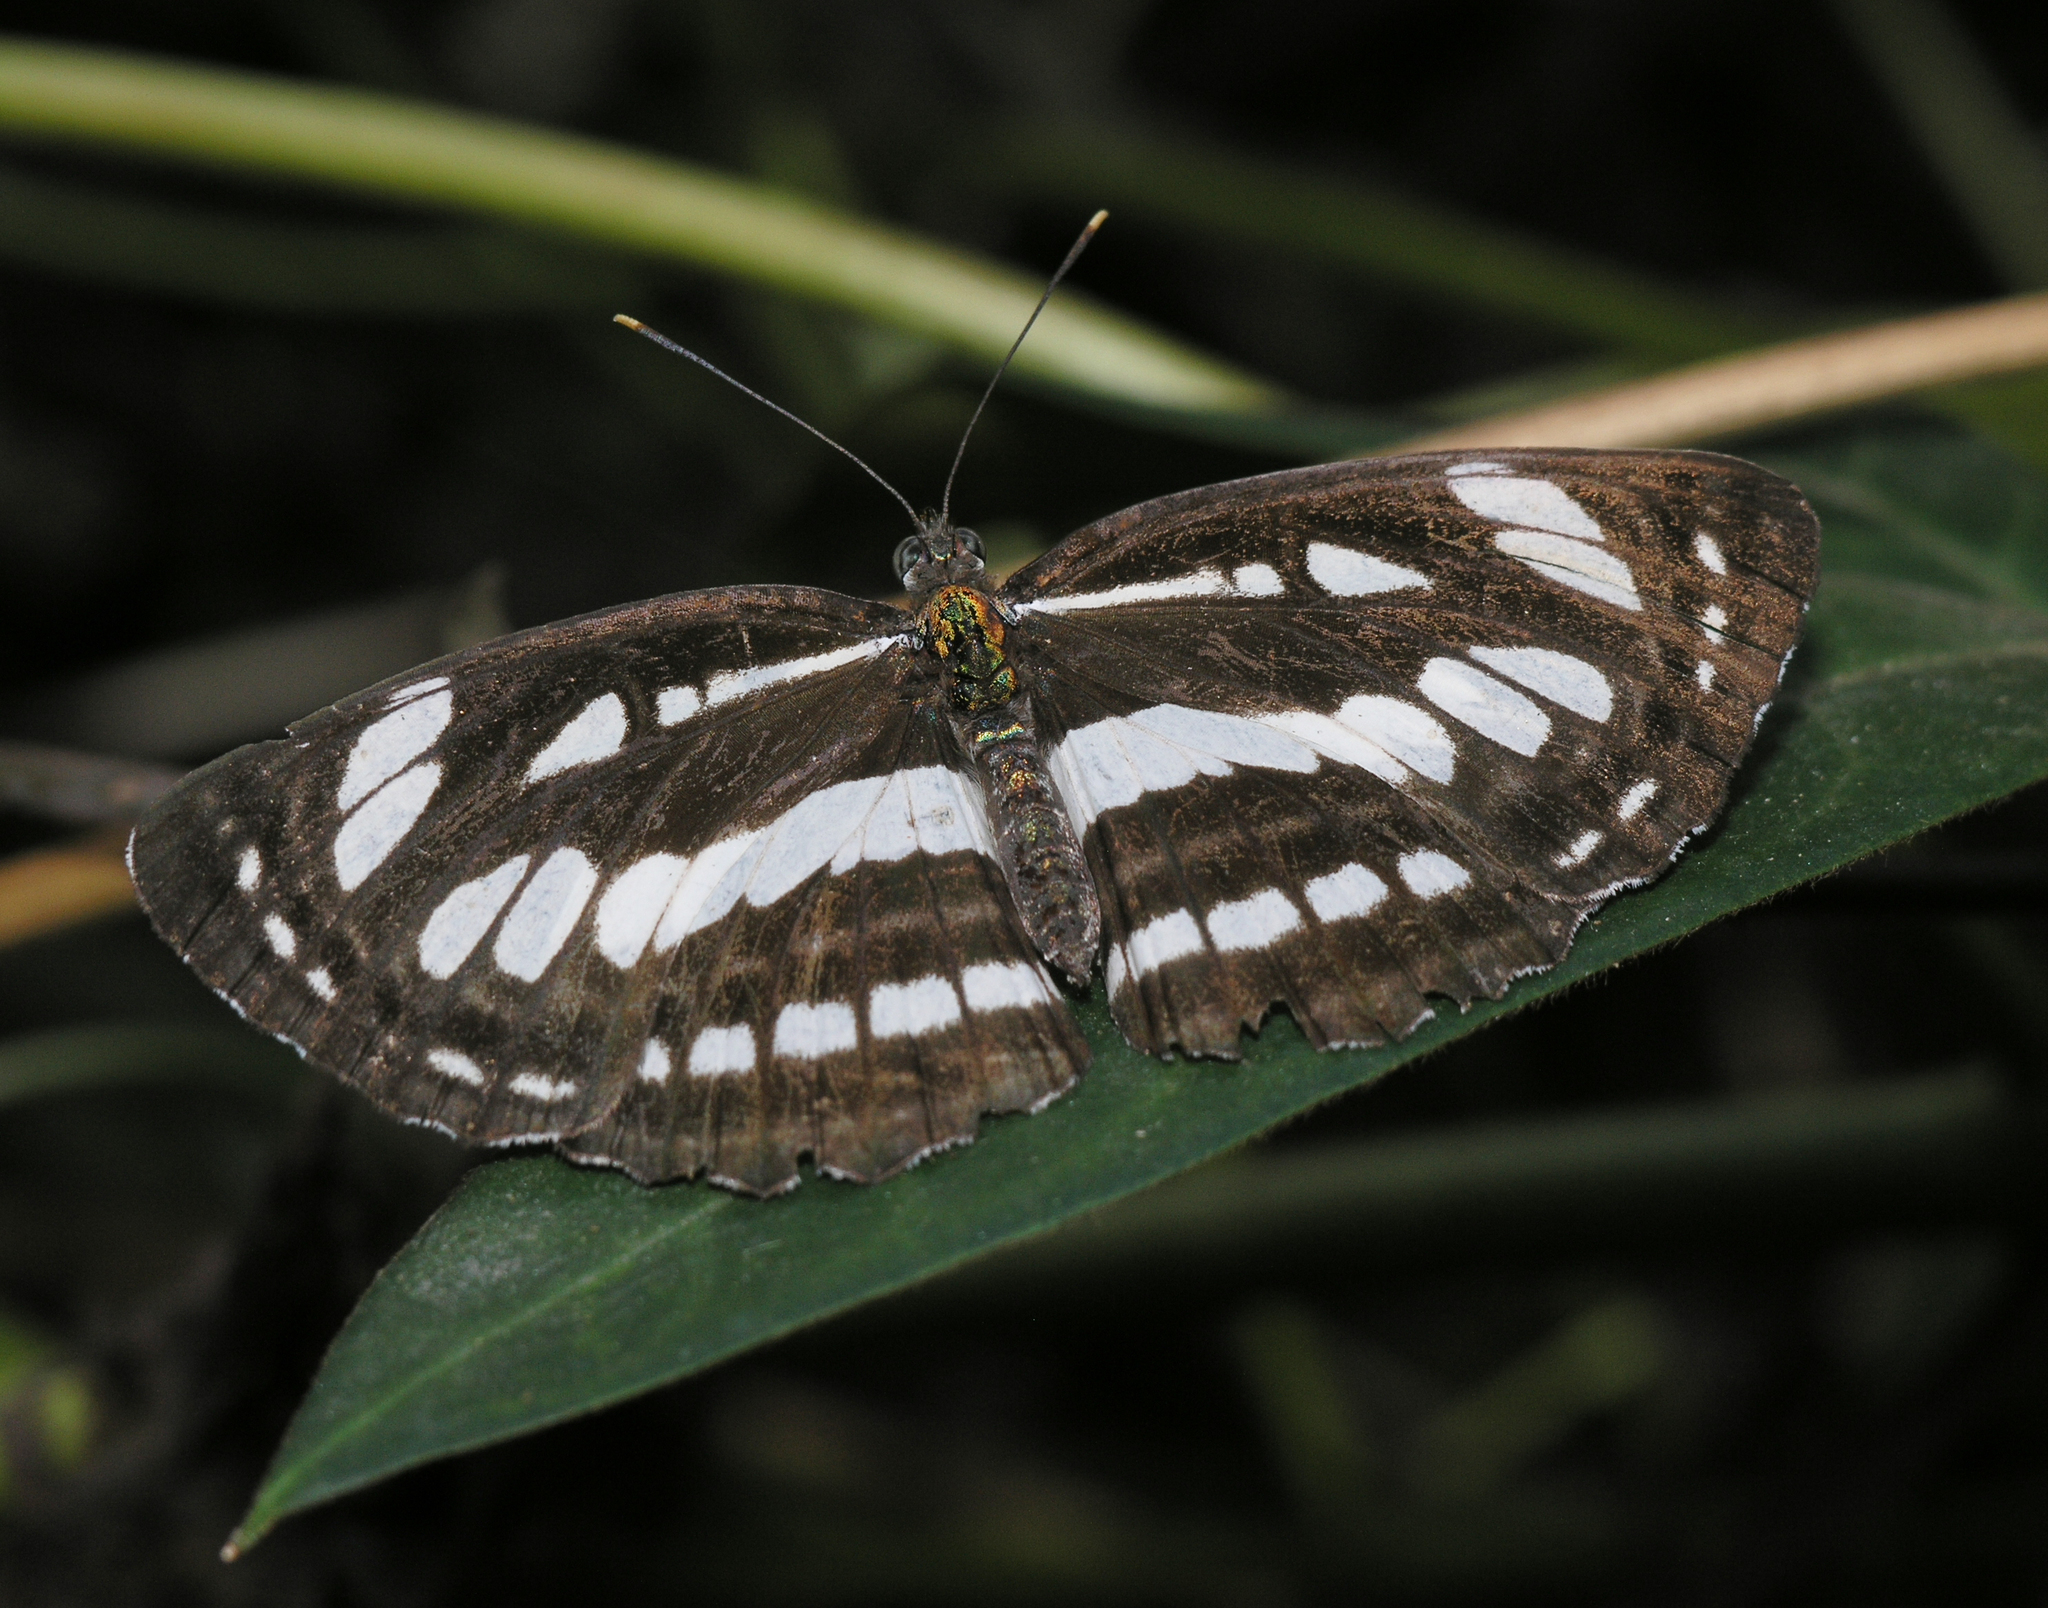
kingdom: Animalia
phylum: Arthropoda
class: Insecta
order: Lepidoptera
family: Nymphalidae
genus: Neptis
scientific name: Neptis hylas
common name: Common sailer
